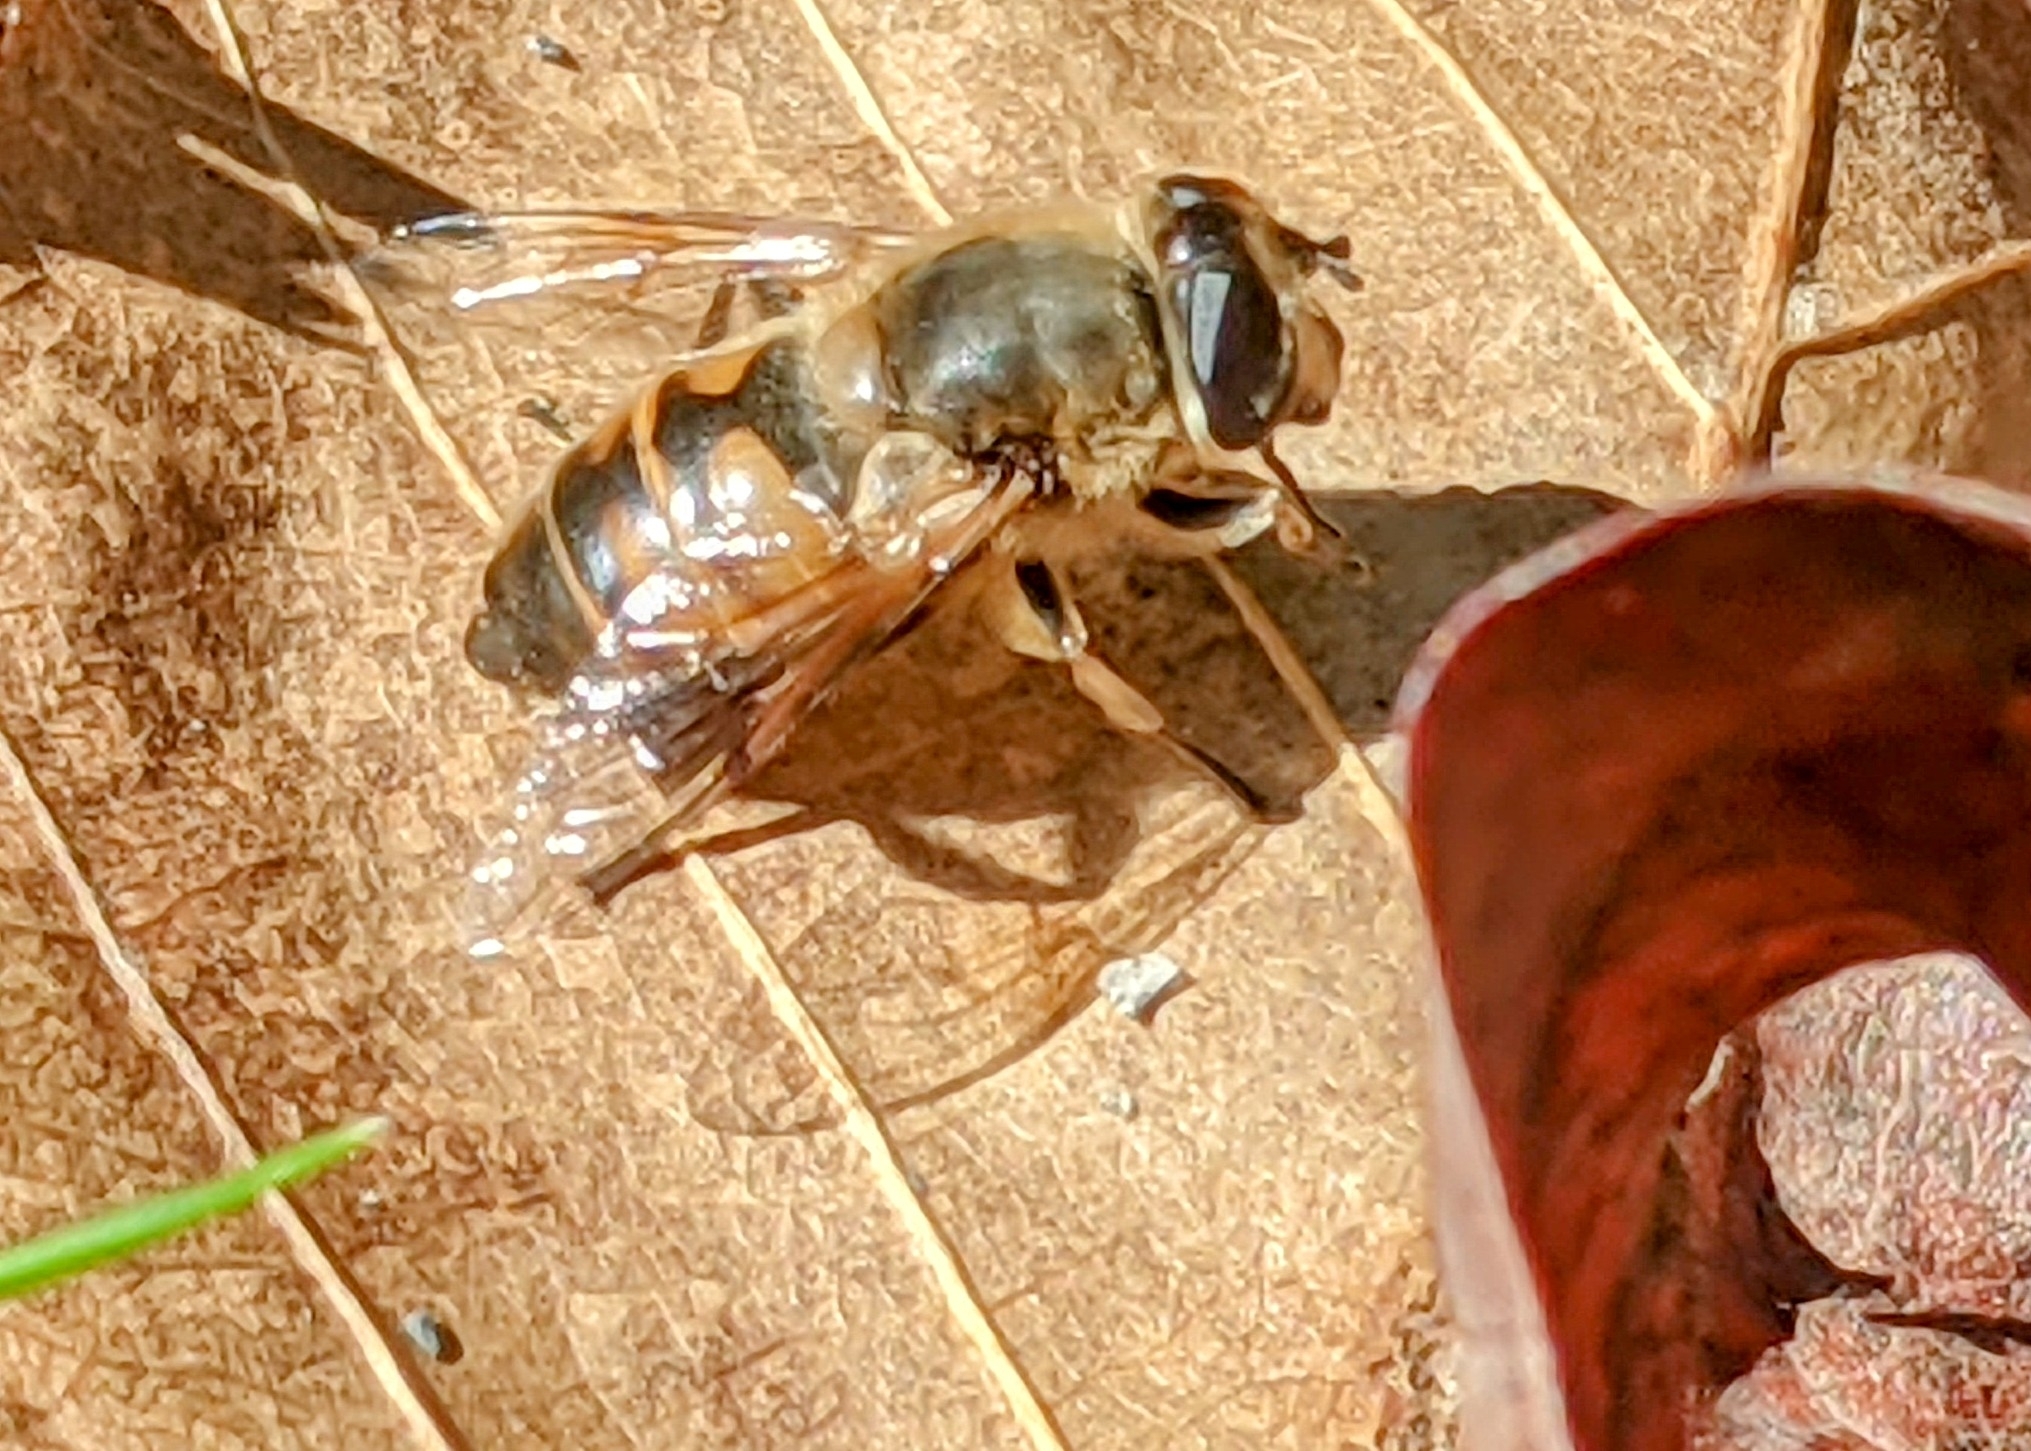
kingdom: Animalia
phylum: Arthropoda
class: Insecta
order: Diptera
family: Syrphidae
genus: Eristalis
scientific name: Eristalis tenax
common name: Drone fly
